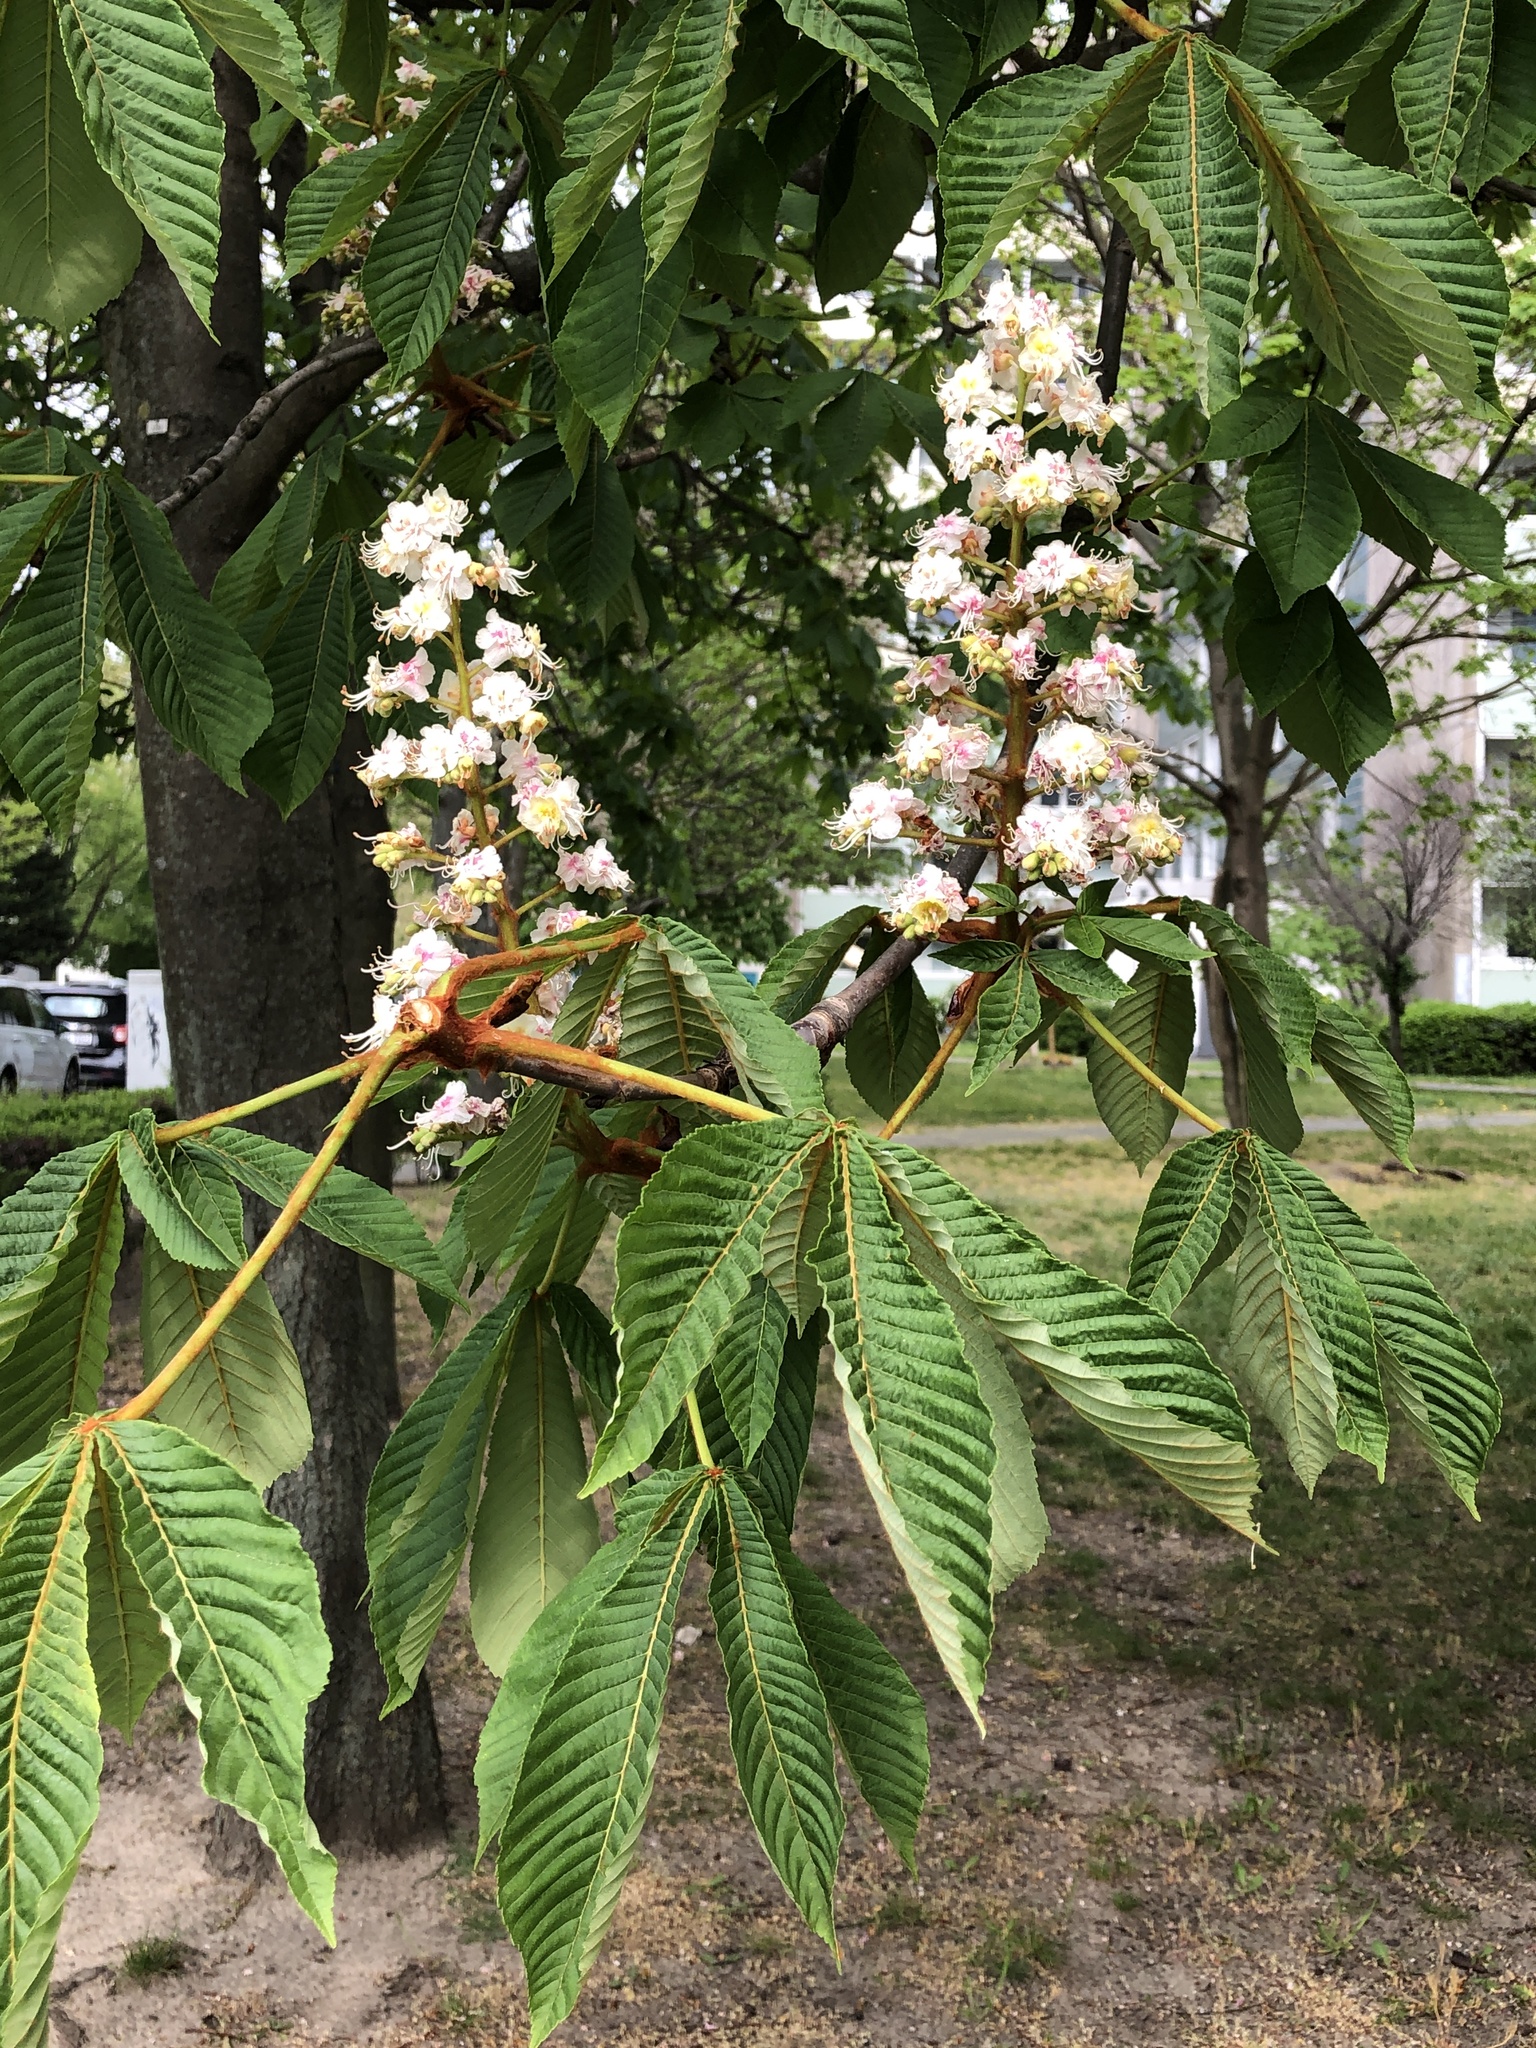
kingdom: Plantae
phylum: Tracheophyta
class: Magnoliopsida
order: Sapindales
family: Sapindaceae
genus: Aesculus
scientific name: Aesculus hippocastanum
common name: Horse-chestnut
